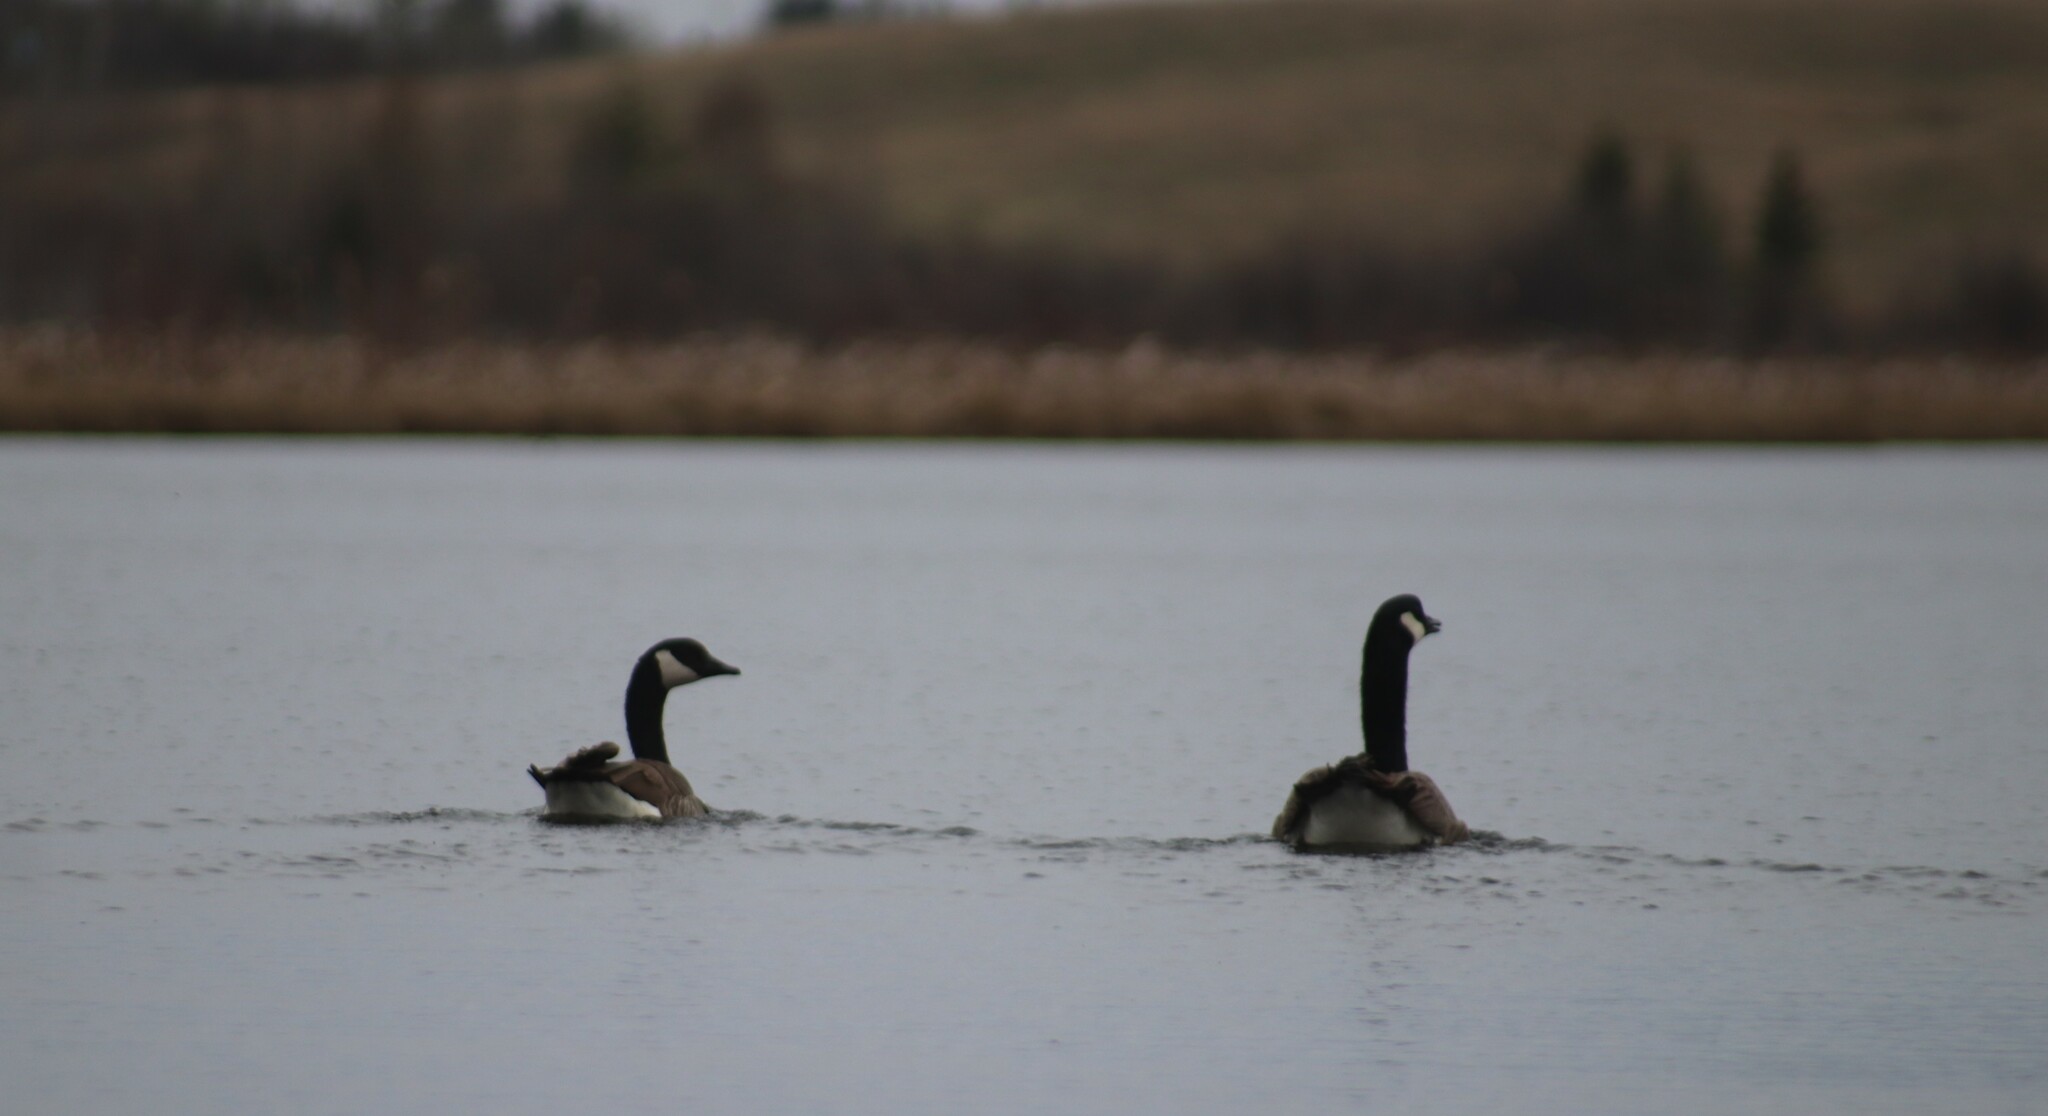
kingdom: Animalia
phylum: Chordata
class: Aves
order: Anseriformes
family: Anatidae
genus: Branta
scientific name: Branta canadensis
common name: Canada goose
